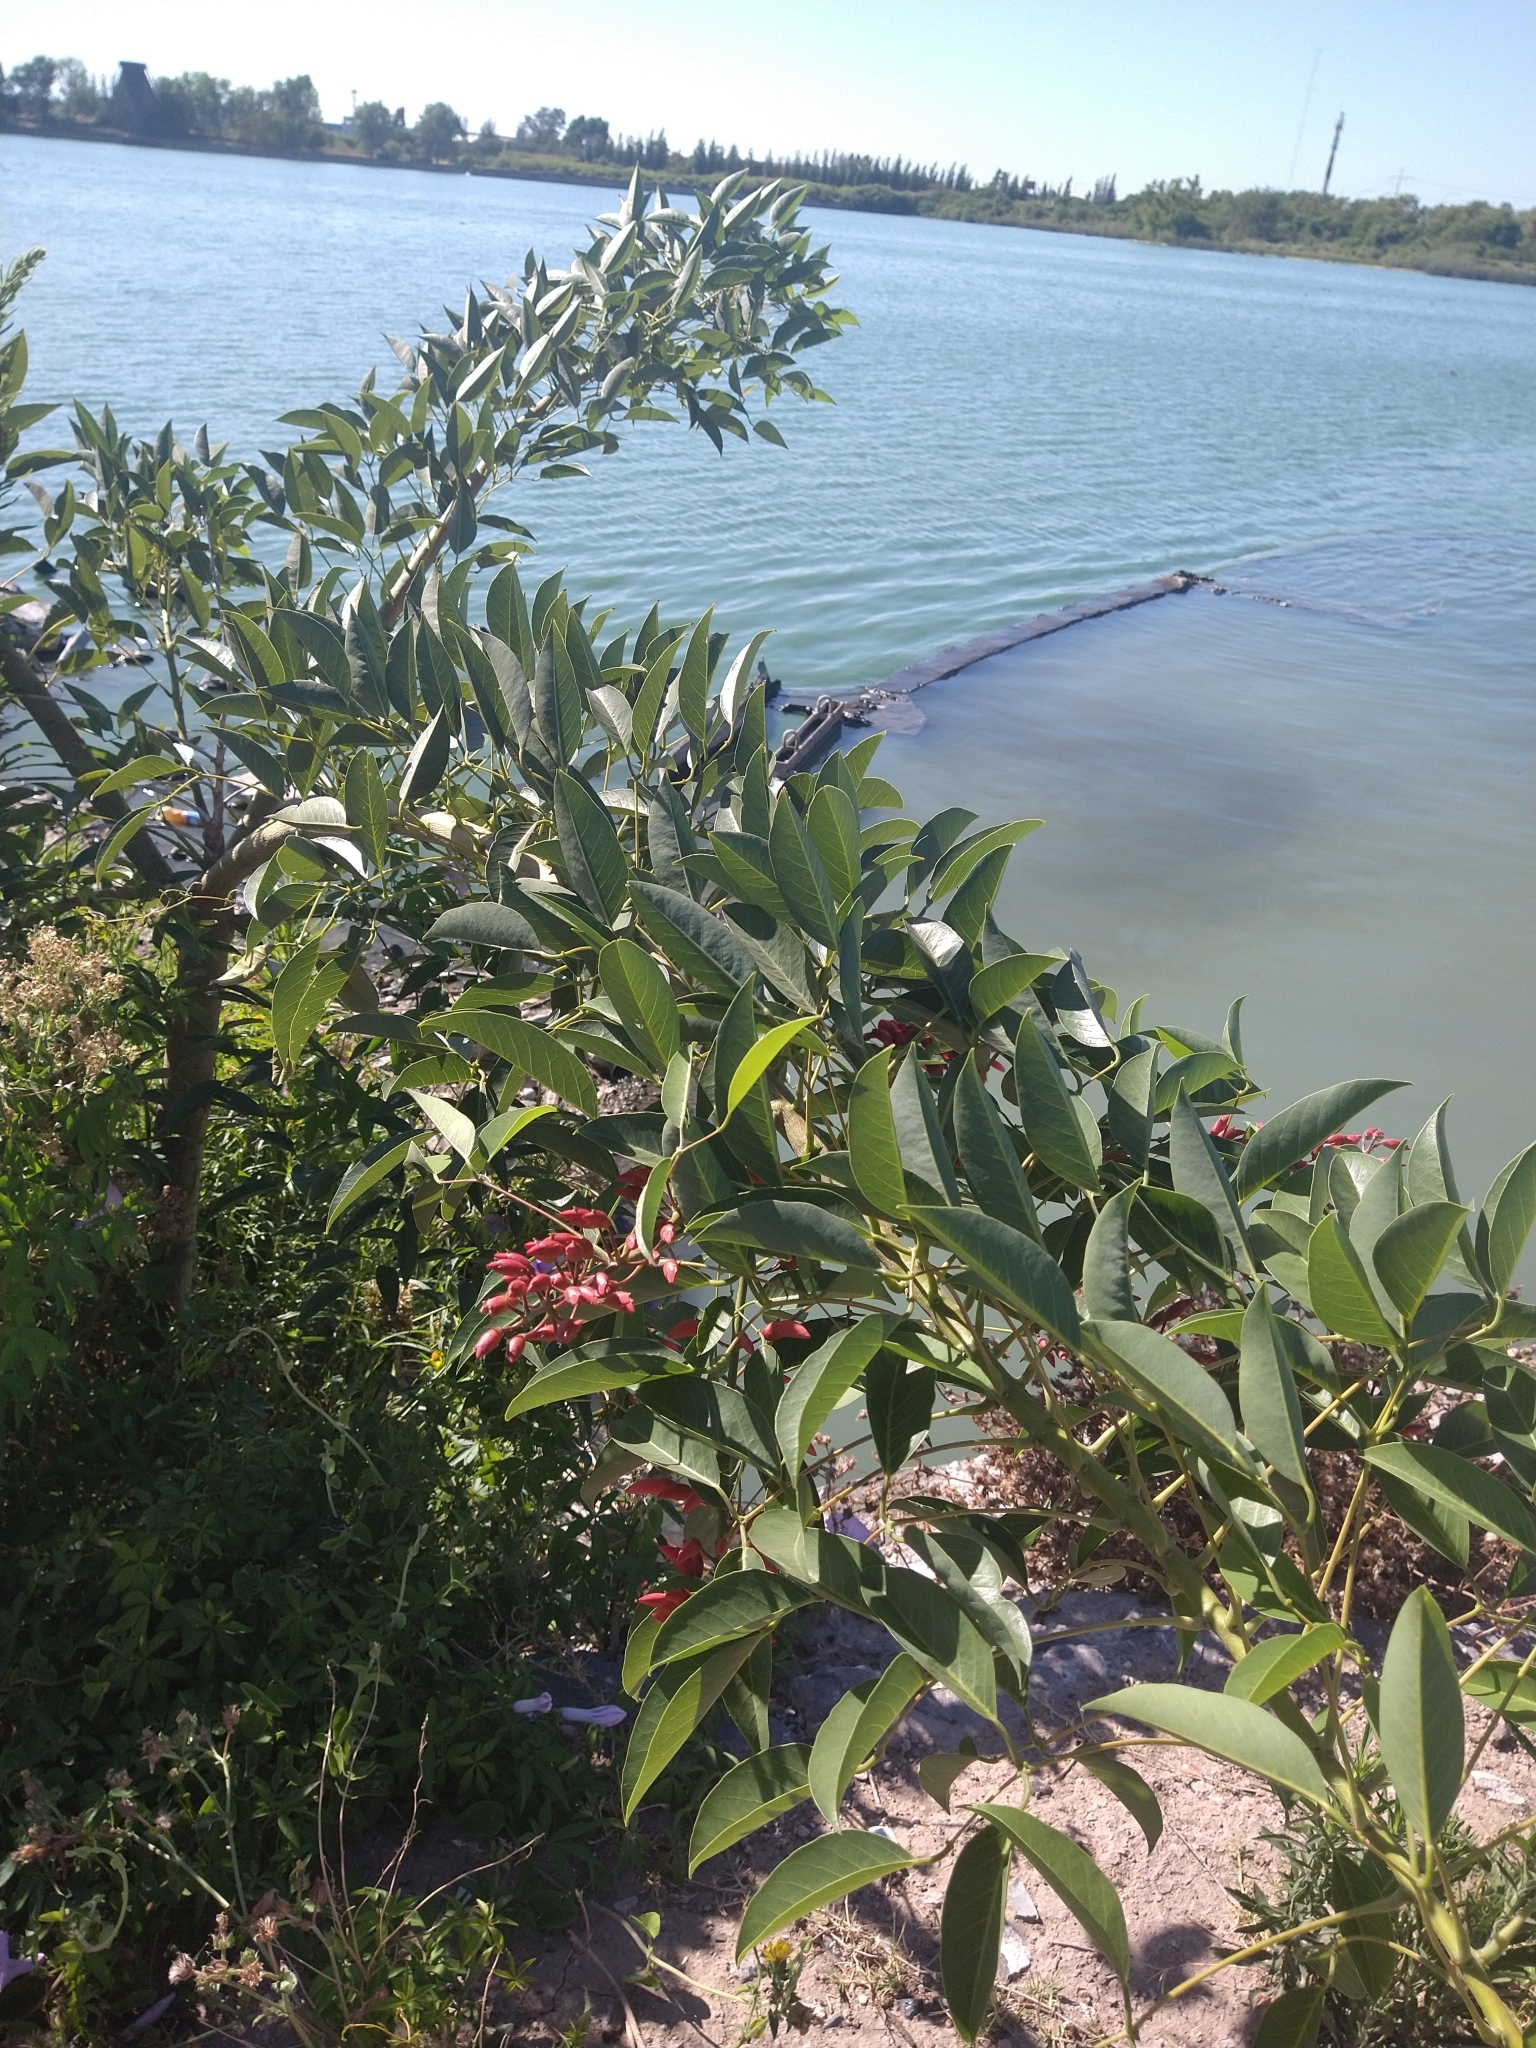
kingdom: Plantae
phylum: Tracheophyta
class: Magnoliopsida
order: Fabales
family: Fabaceae
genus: Erythrina
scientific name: Erythrina crista-galli
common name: Cockspur coral tree
